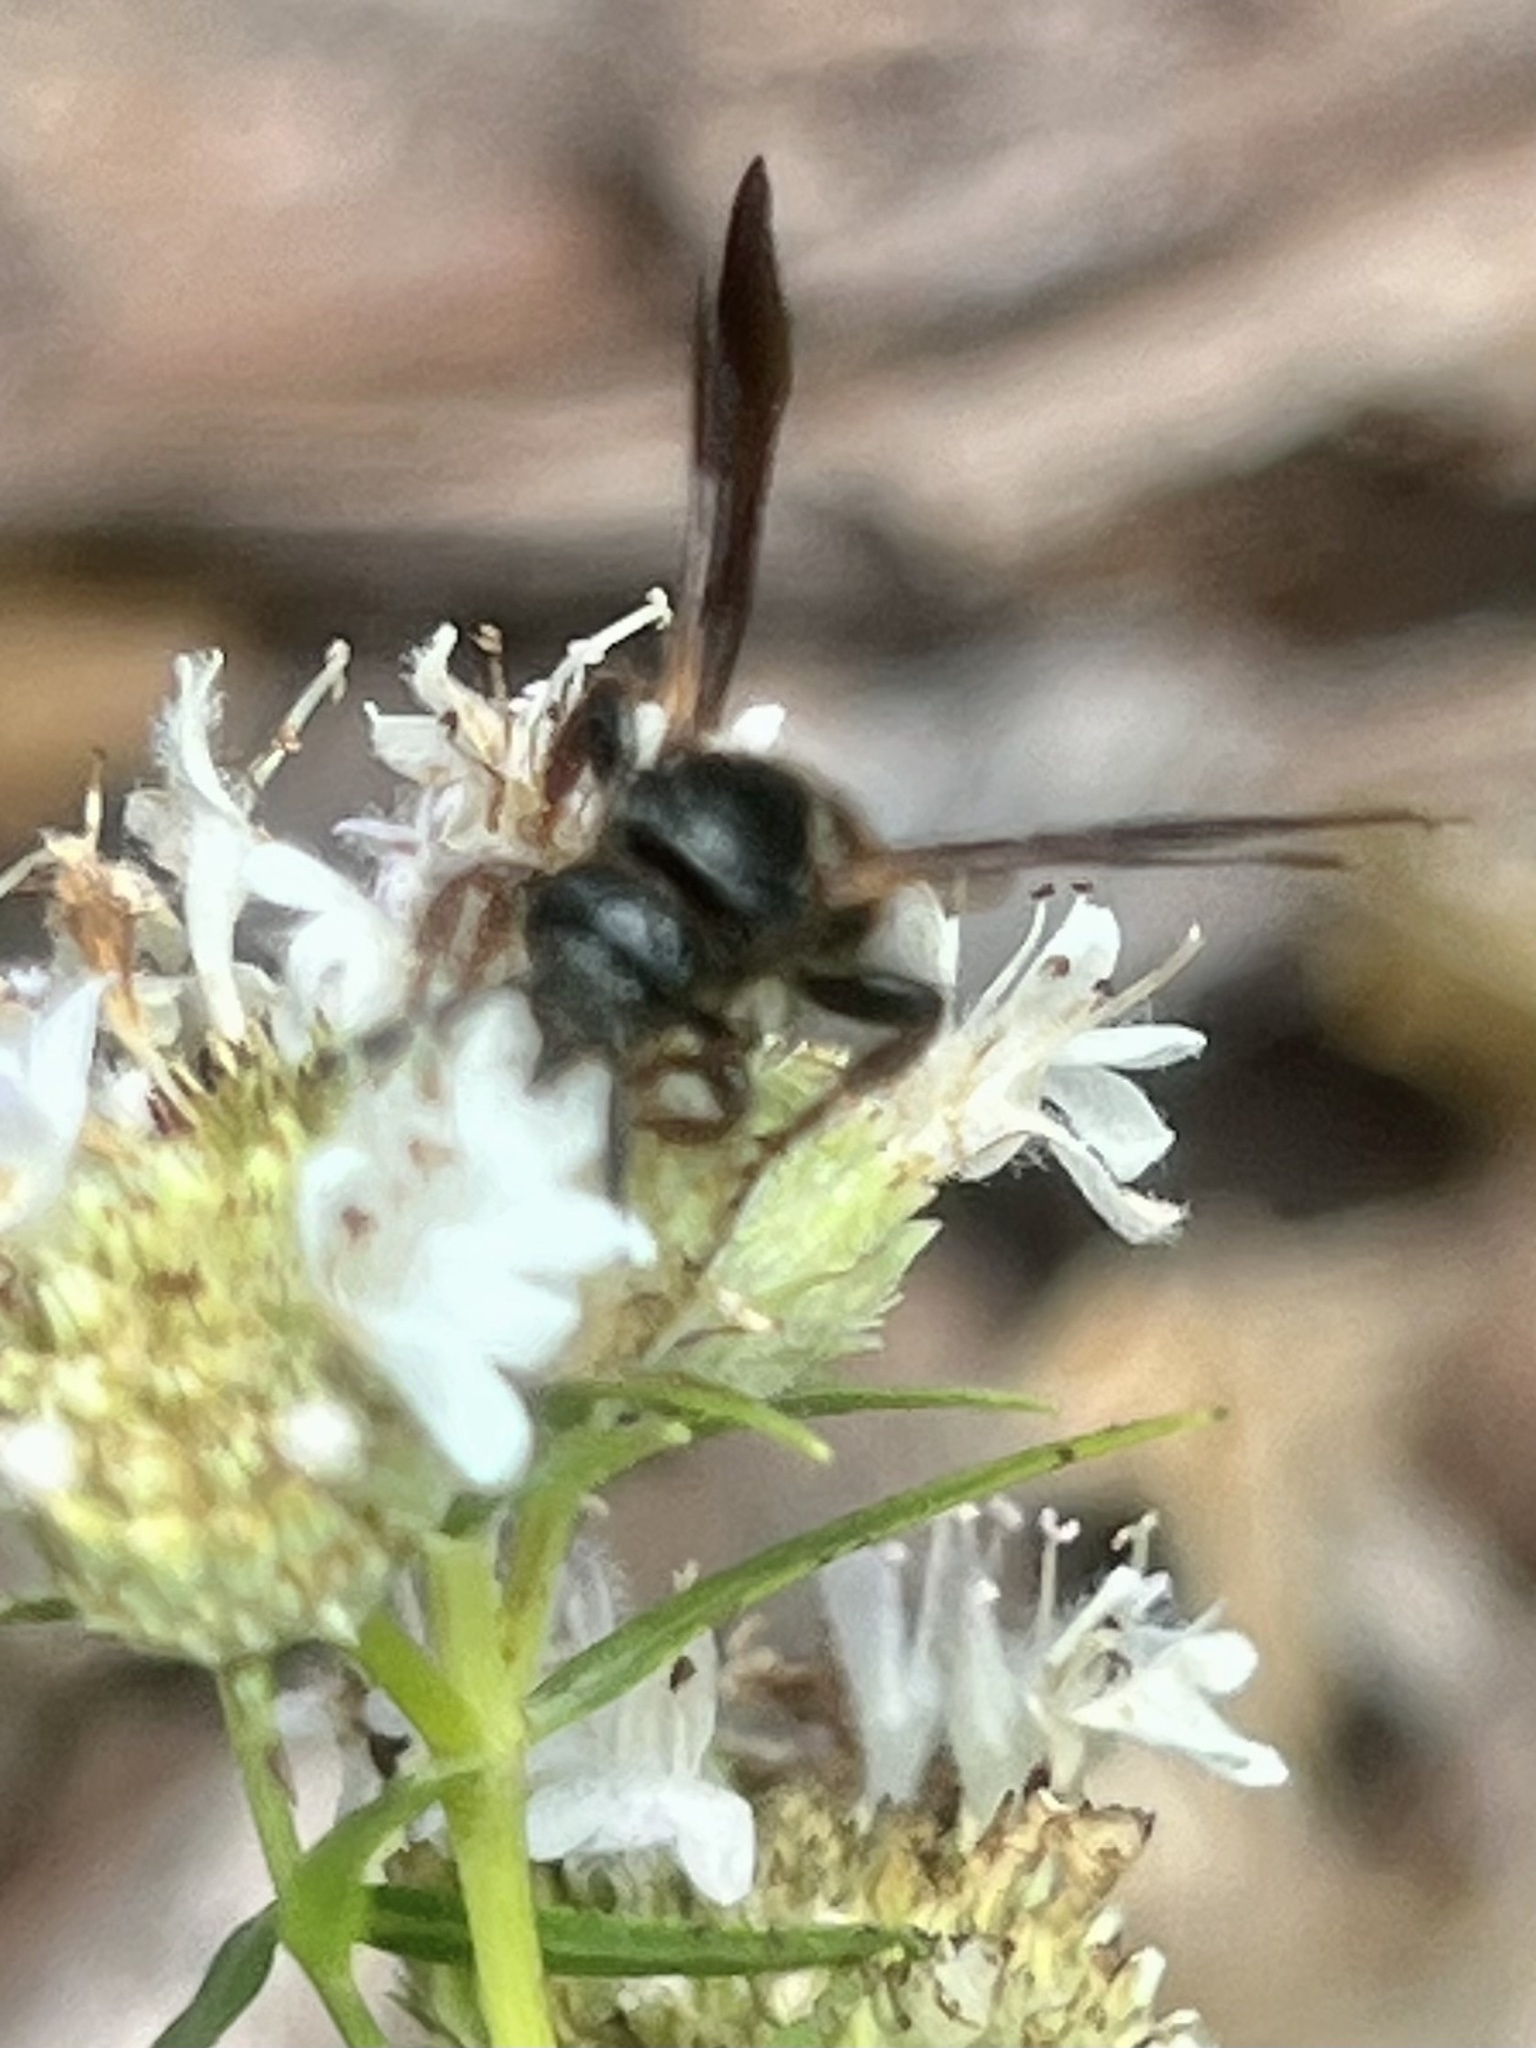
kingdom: Animalia
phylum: Arthropoda
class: Insecta
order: Hymenoptera
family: Scoliidae
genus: Scolia
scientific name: Scolia nobilitata
